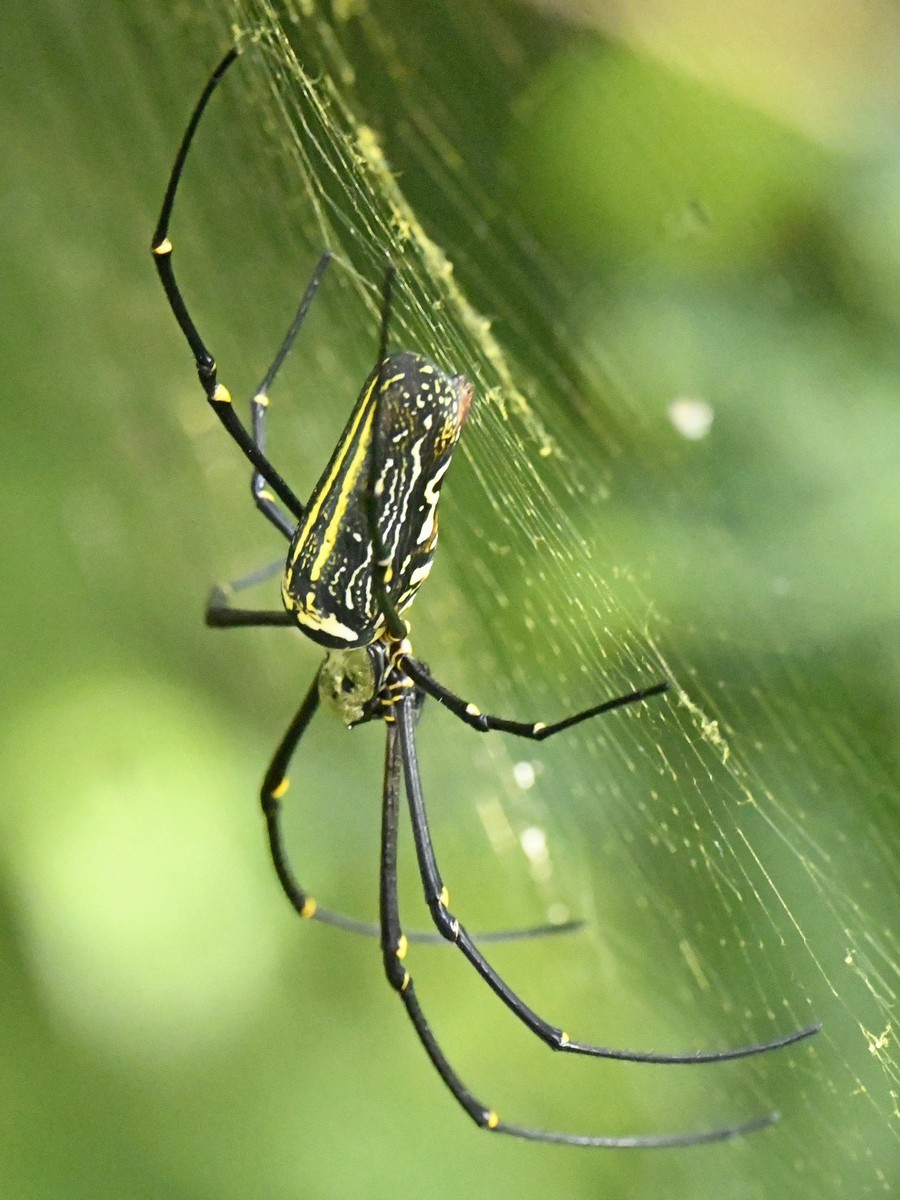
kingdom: Animalia
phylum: Arthropoda
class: Arachnida
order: Araneae
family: Araneidae
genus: Nephila
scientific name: Nephila pilipes
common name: Giant golden orb weaver
